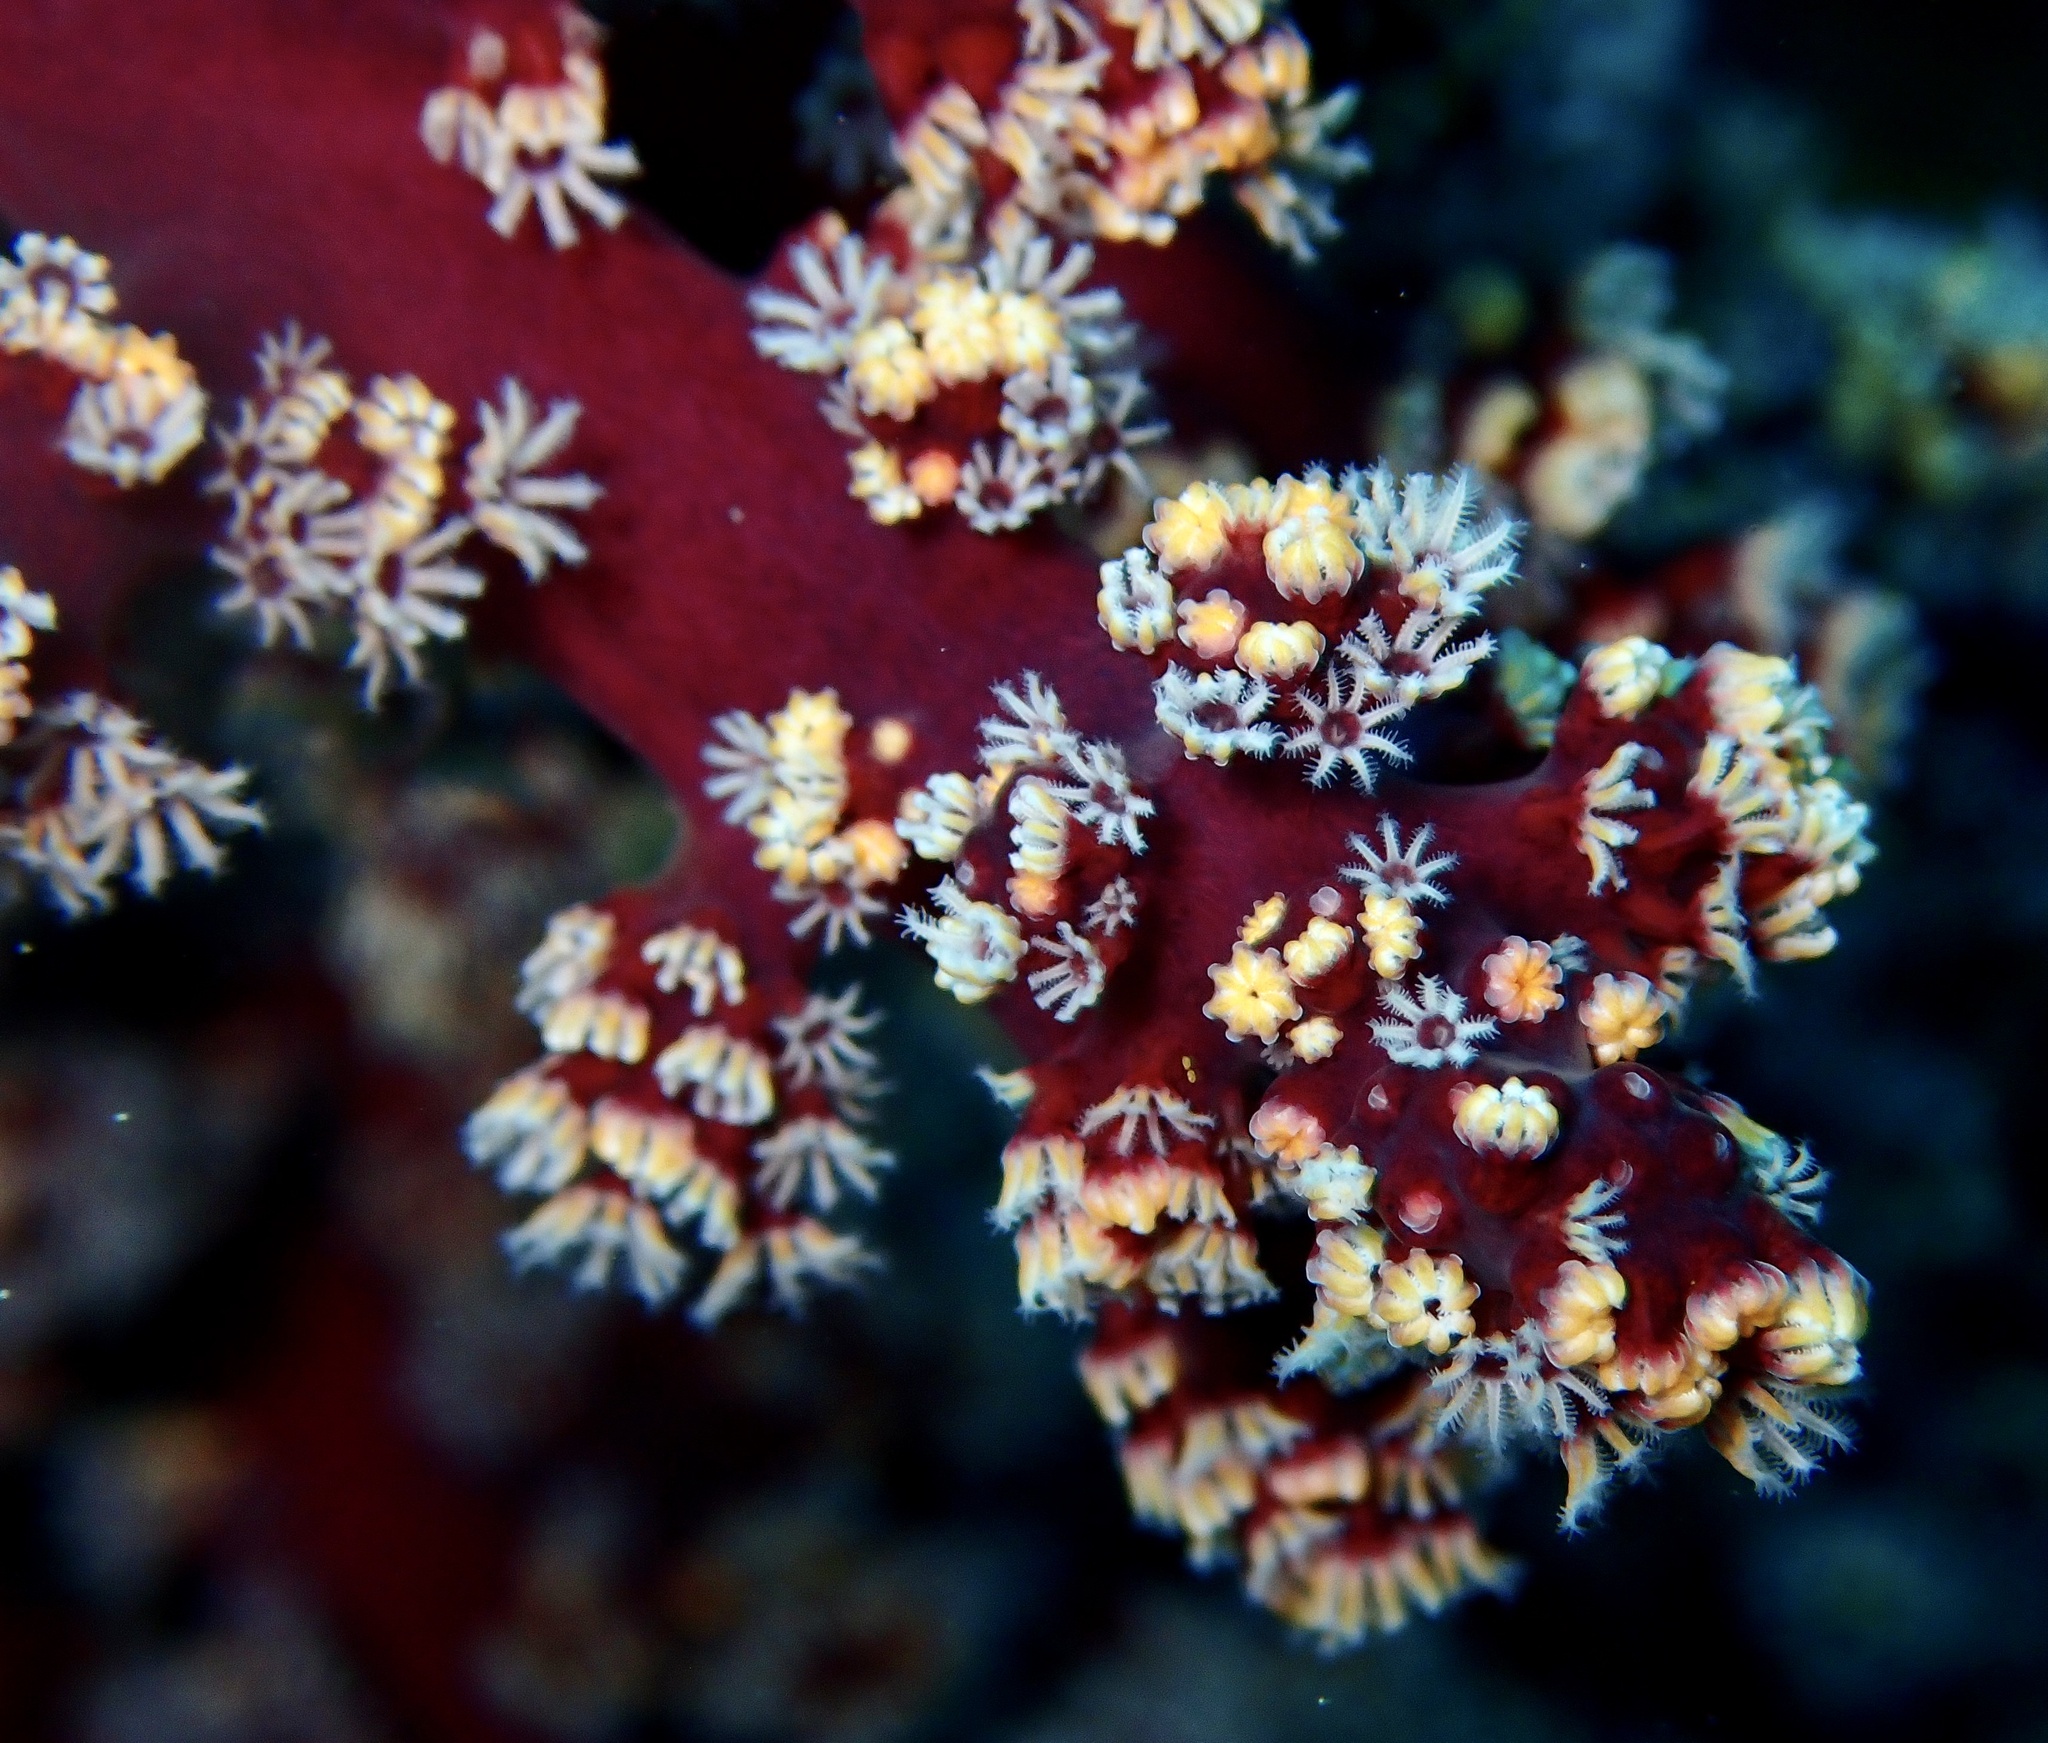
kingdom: Animalia
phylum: Cnidaria
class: Anthozoa
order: Malacalcyonacea
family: Siphonogorgiidae
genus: Siphonogorgia
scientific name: Siphonogorgia godeffroyi
